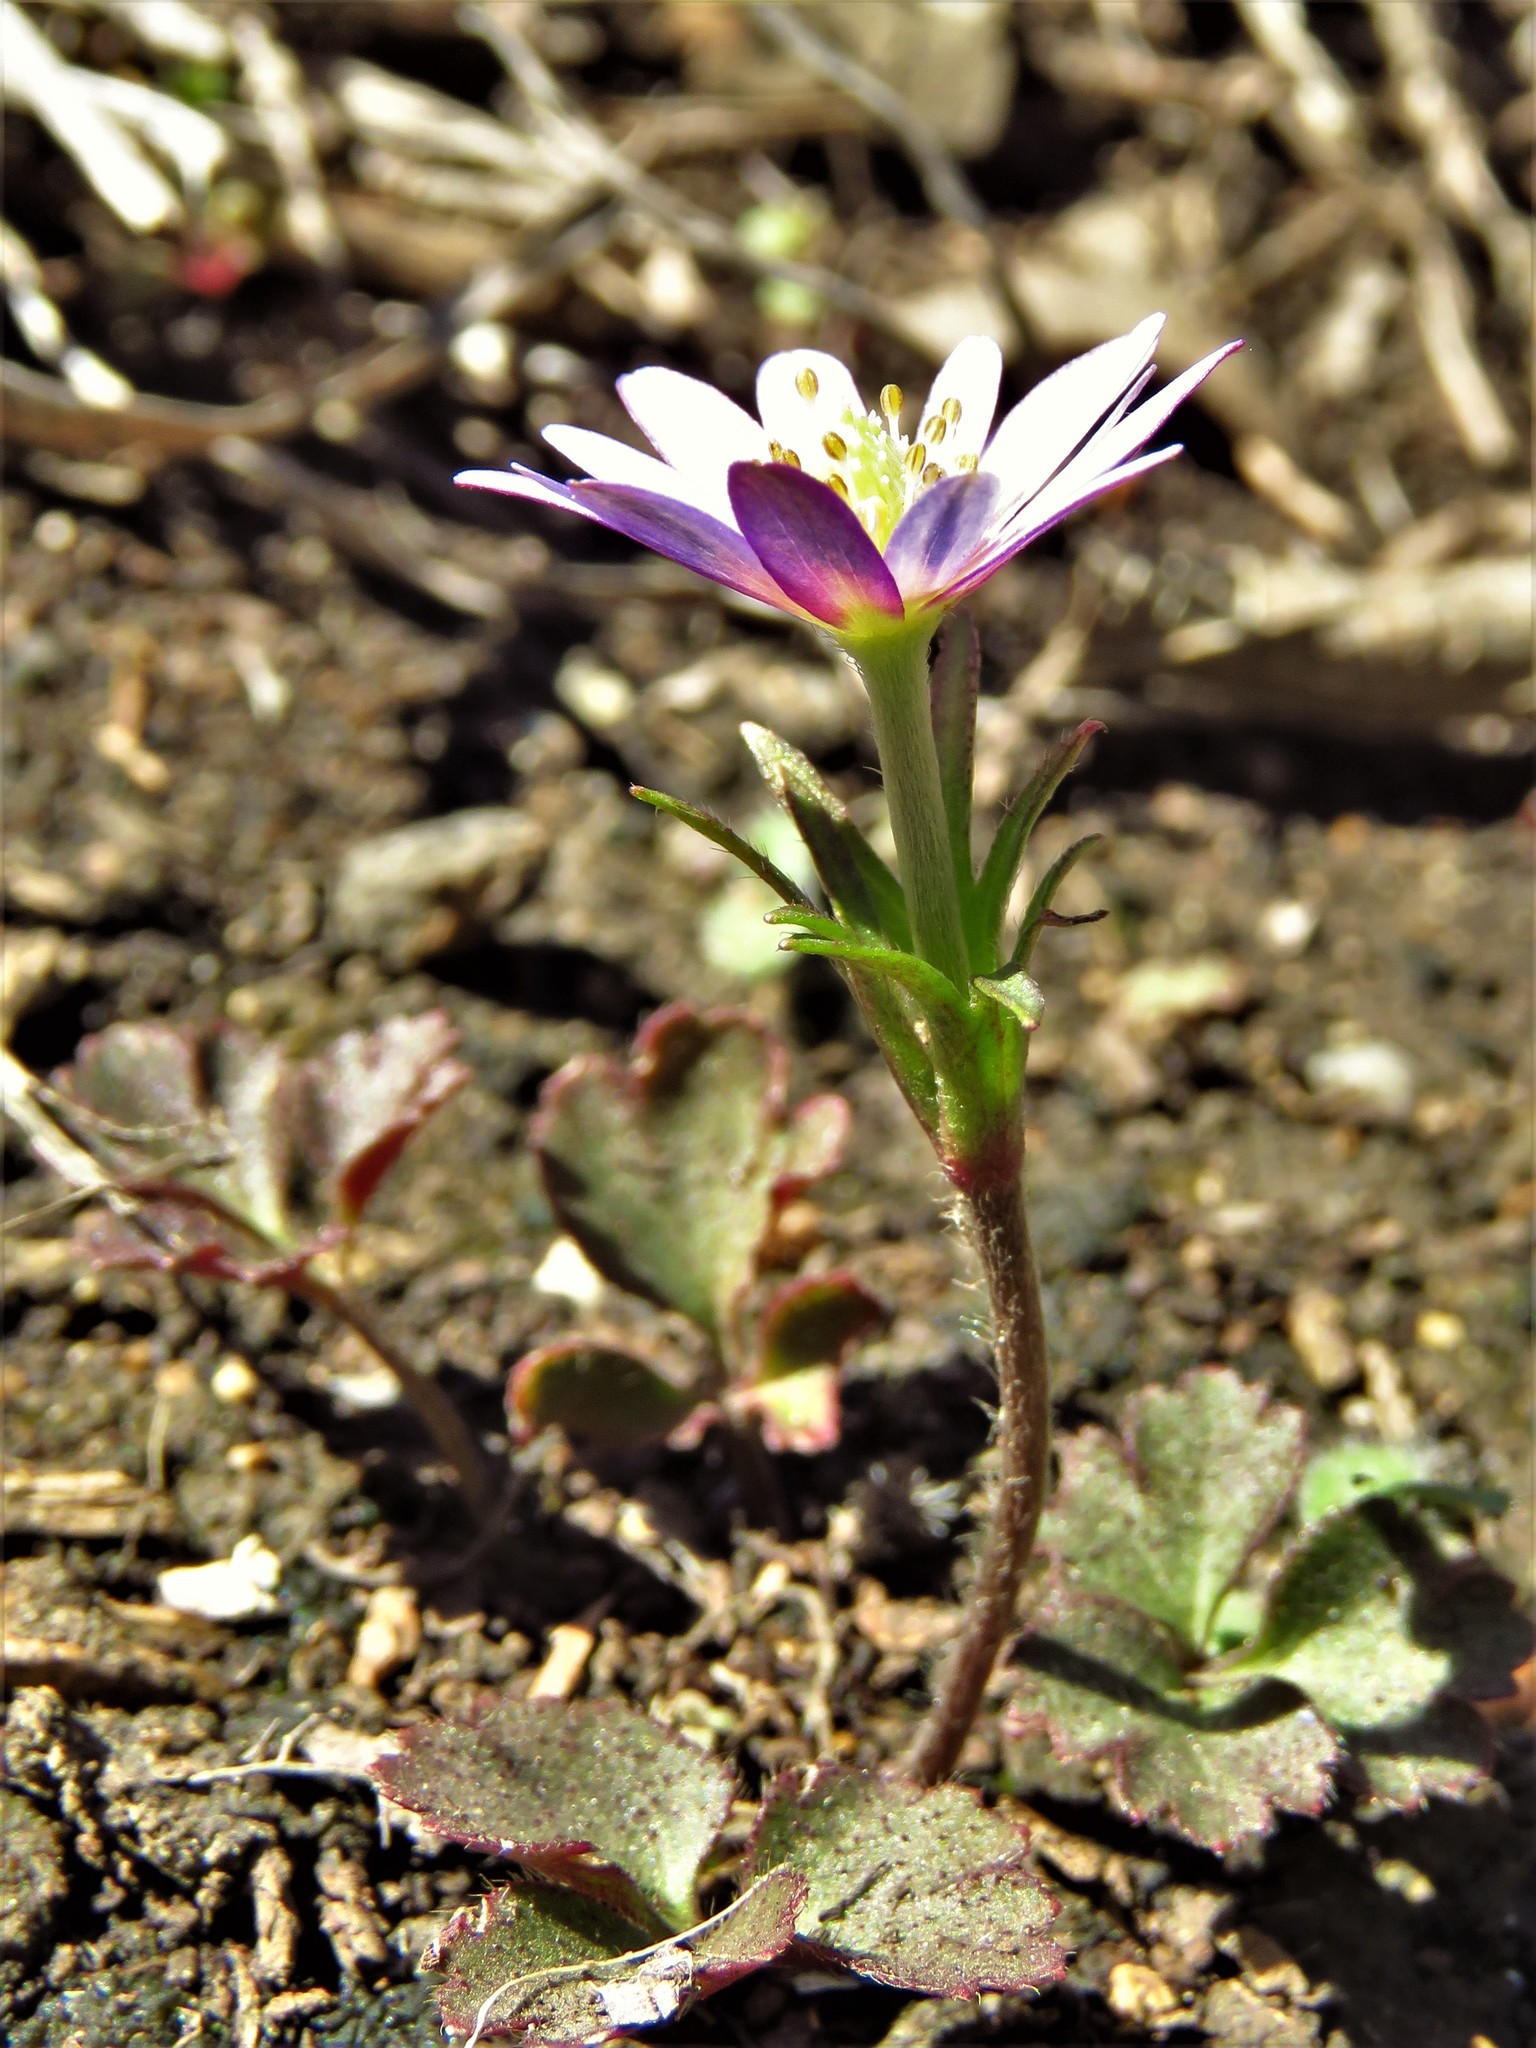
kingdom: Plantae
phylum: Tracheophyta
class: Magnoliopsida
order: Ranunculales
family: Ranunculaceae
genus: Anemone
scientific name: Anemone berlandieri
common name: Ten-petal anemone
